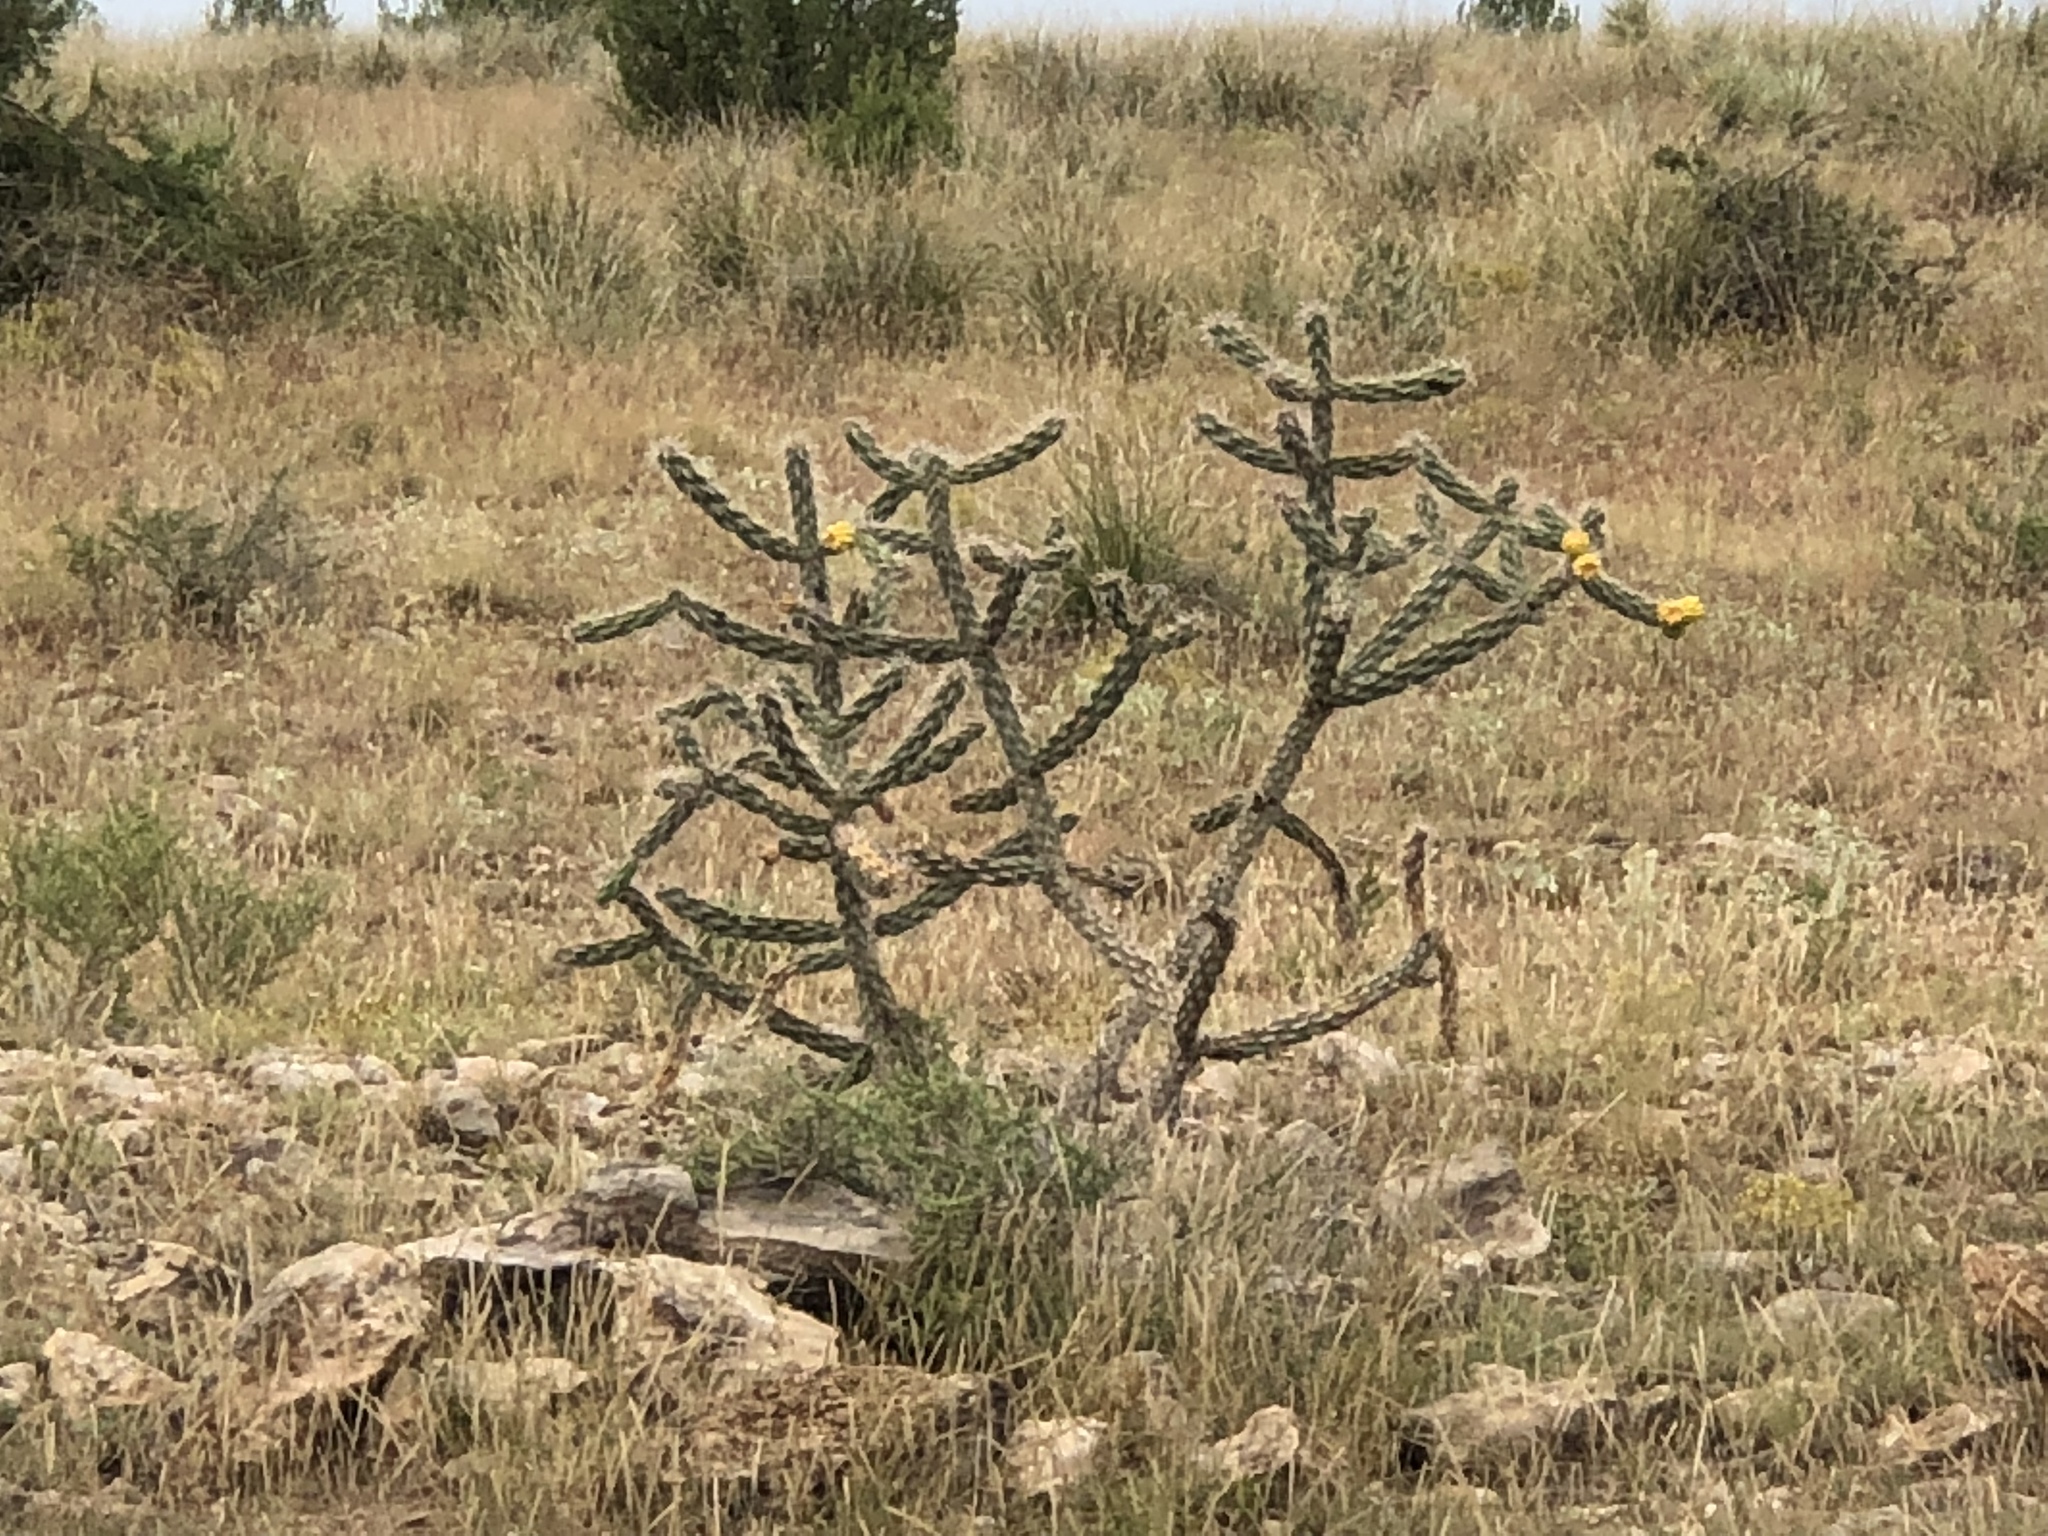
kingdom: Plantae
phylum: Tracheophyta
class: Magnoliopsida
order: Caryophyllales
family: Cactaceae
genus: Cylindropuntia
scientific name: Cylindropuntia imbricata
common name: Candelabrum cactus
